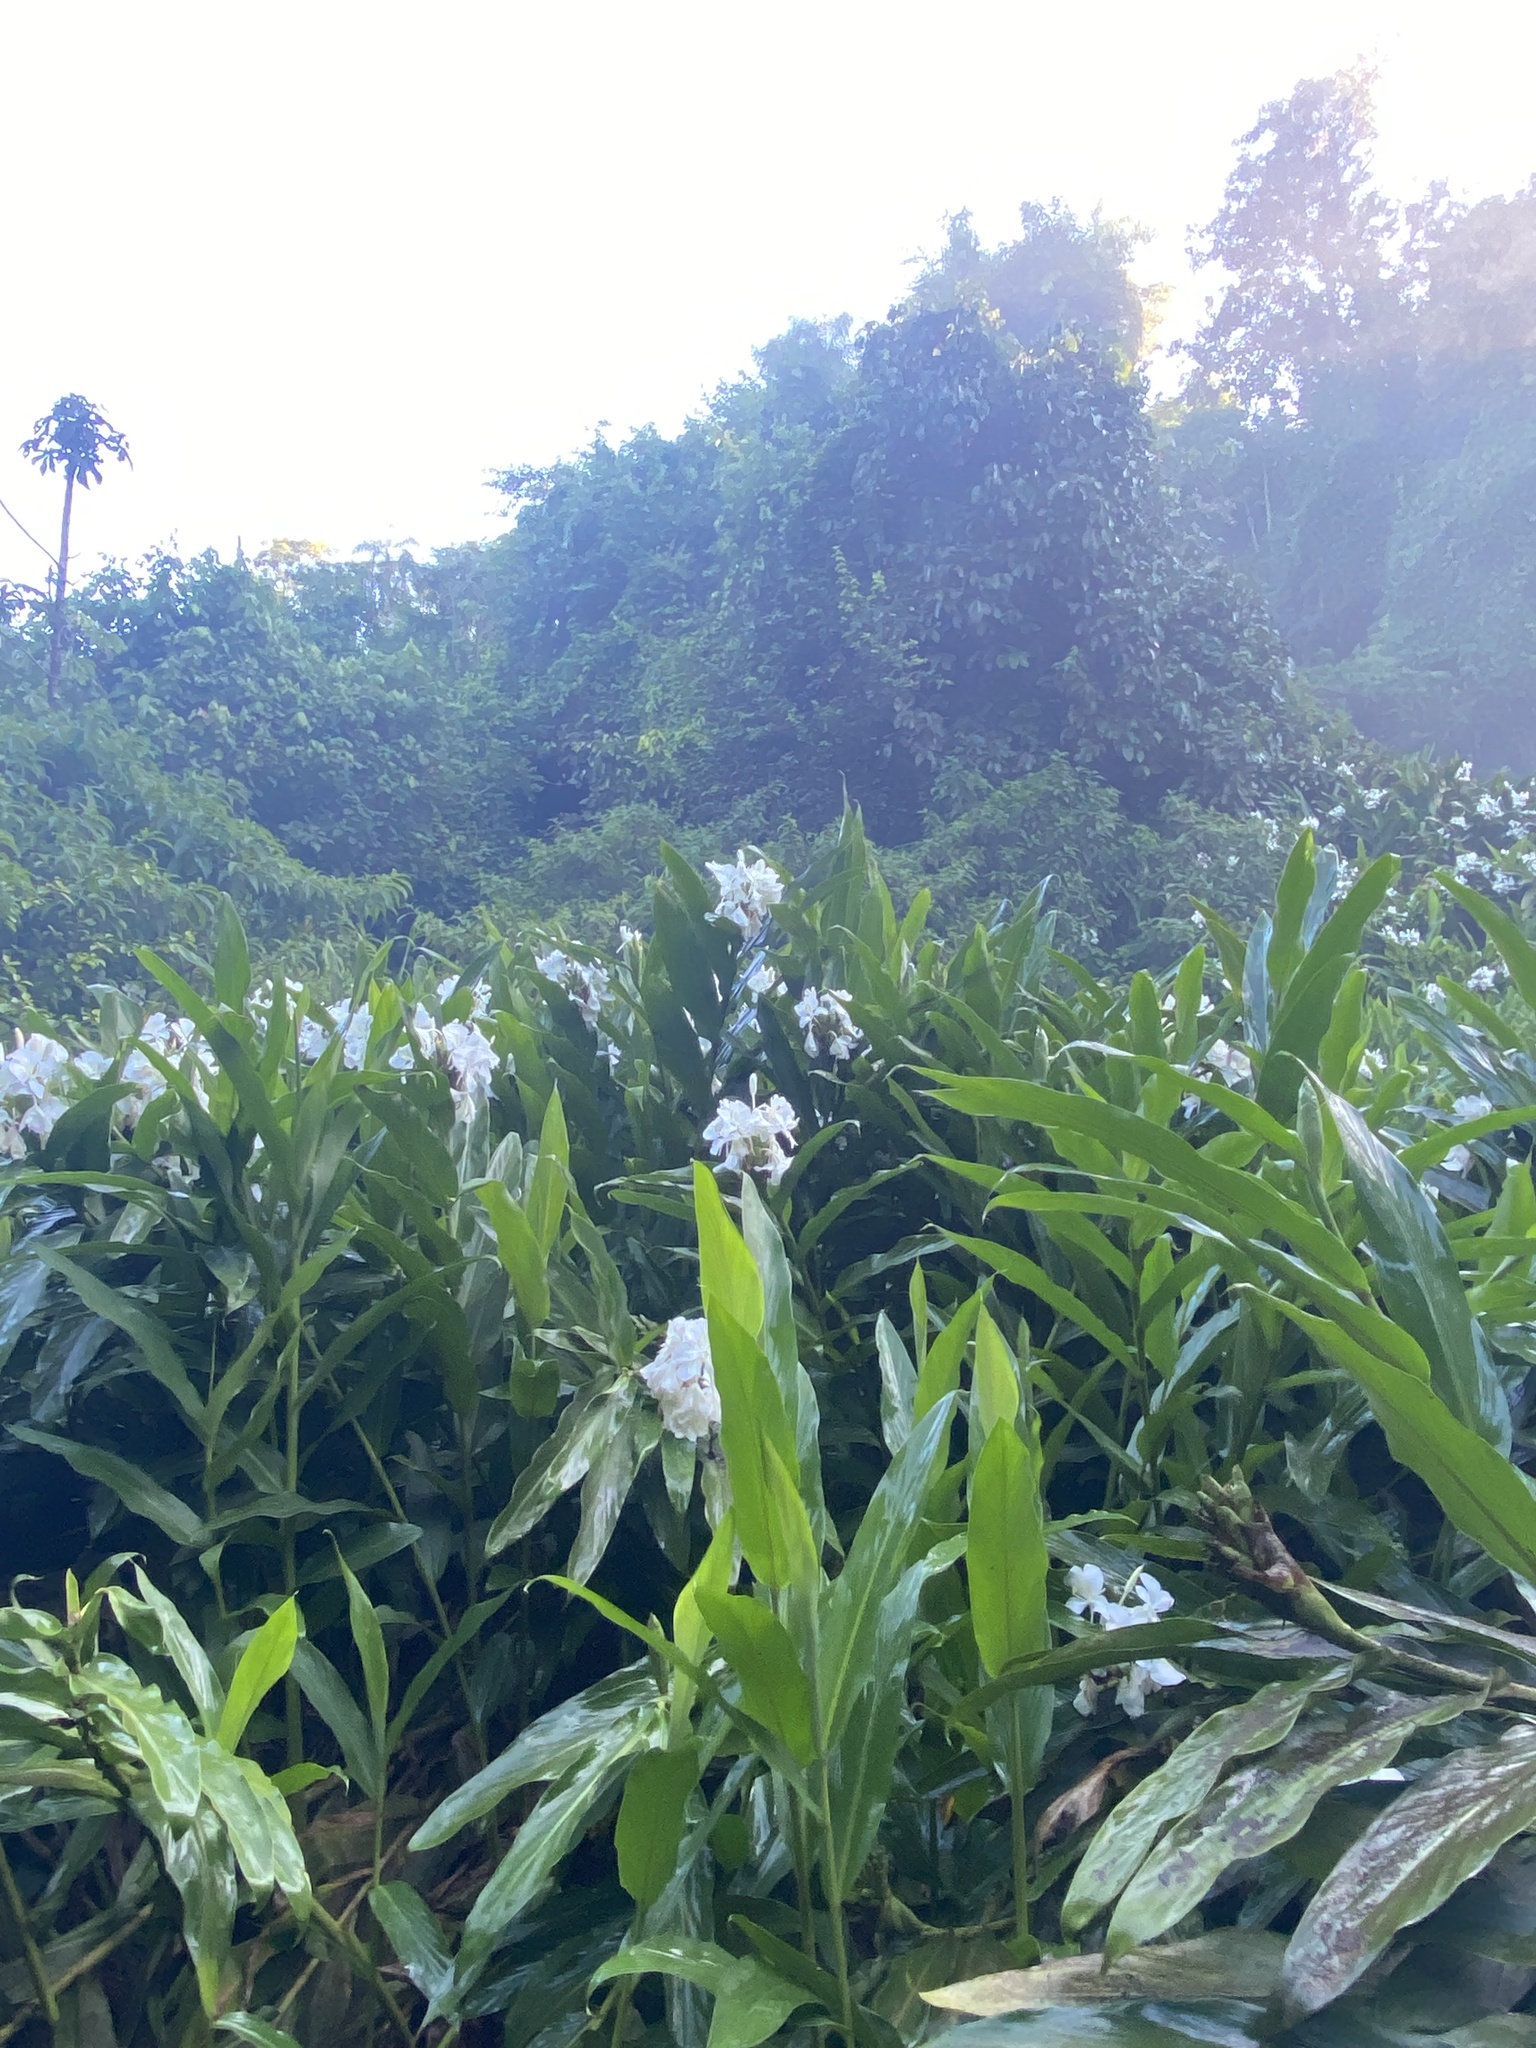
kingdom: Plantae
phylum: Tracheophyta
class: Liliopsida
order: Zingiberales
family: Zingiberaceae
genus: Hedychium
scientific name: Hedychium coronarium
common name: White garland-lily
